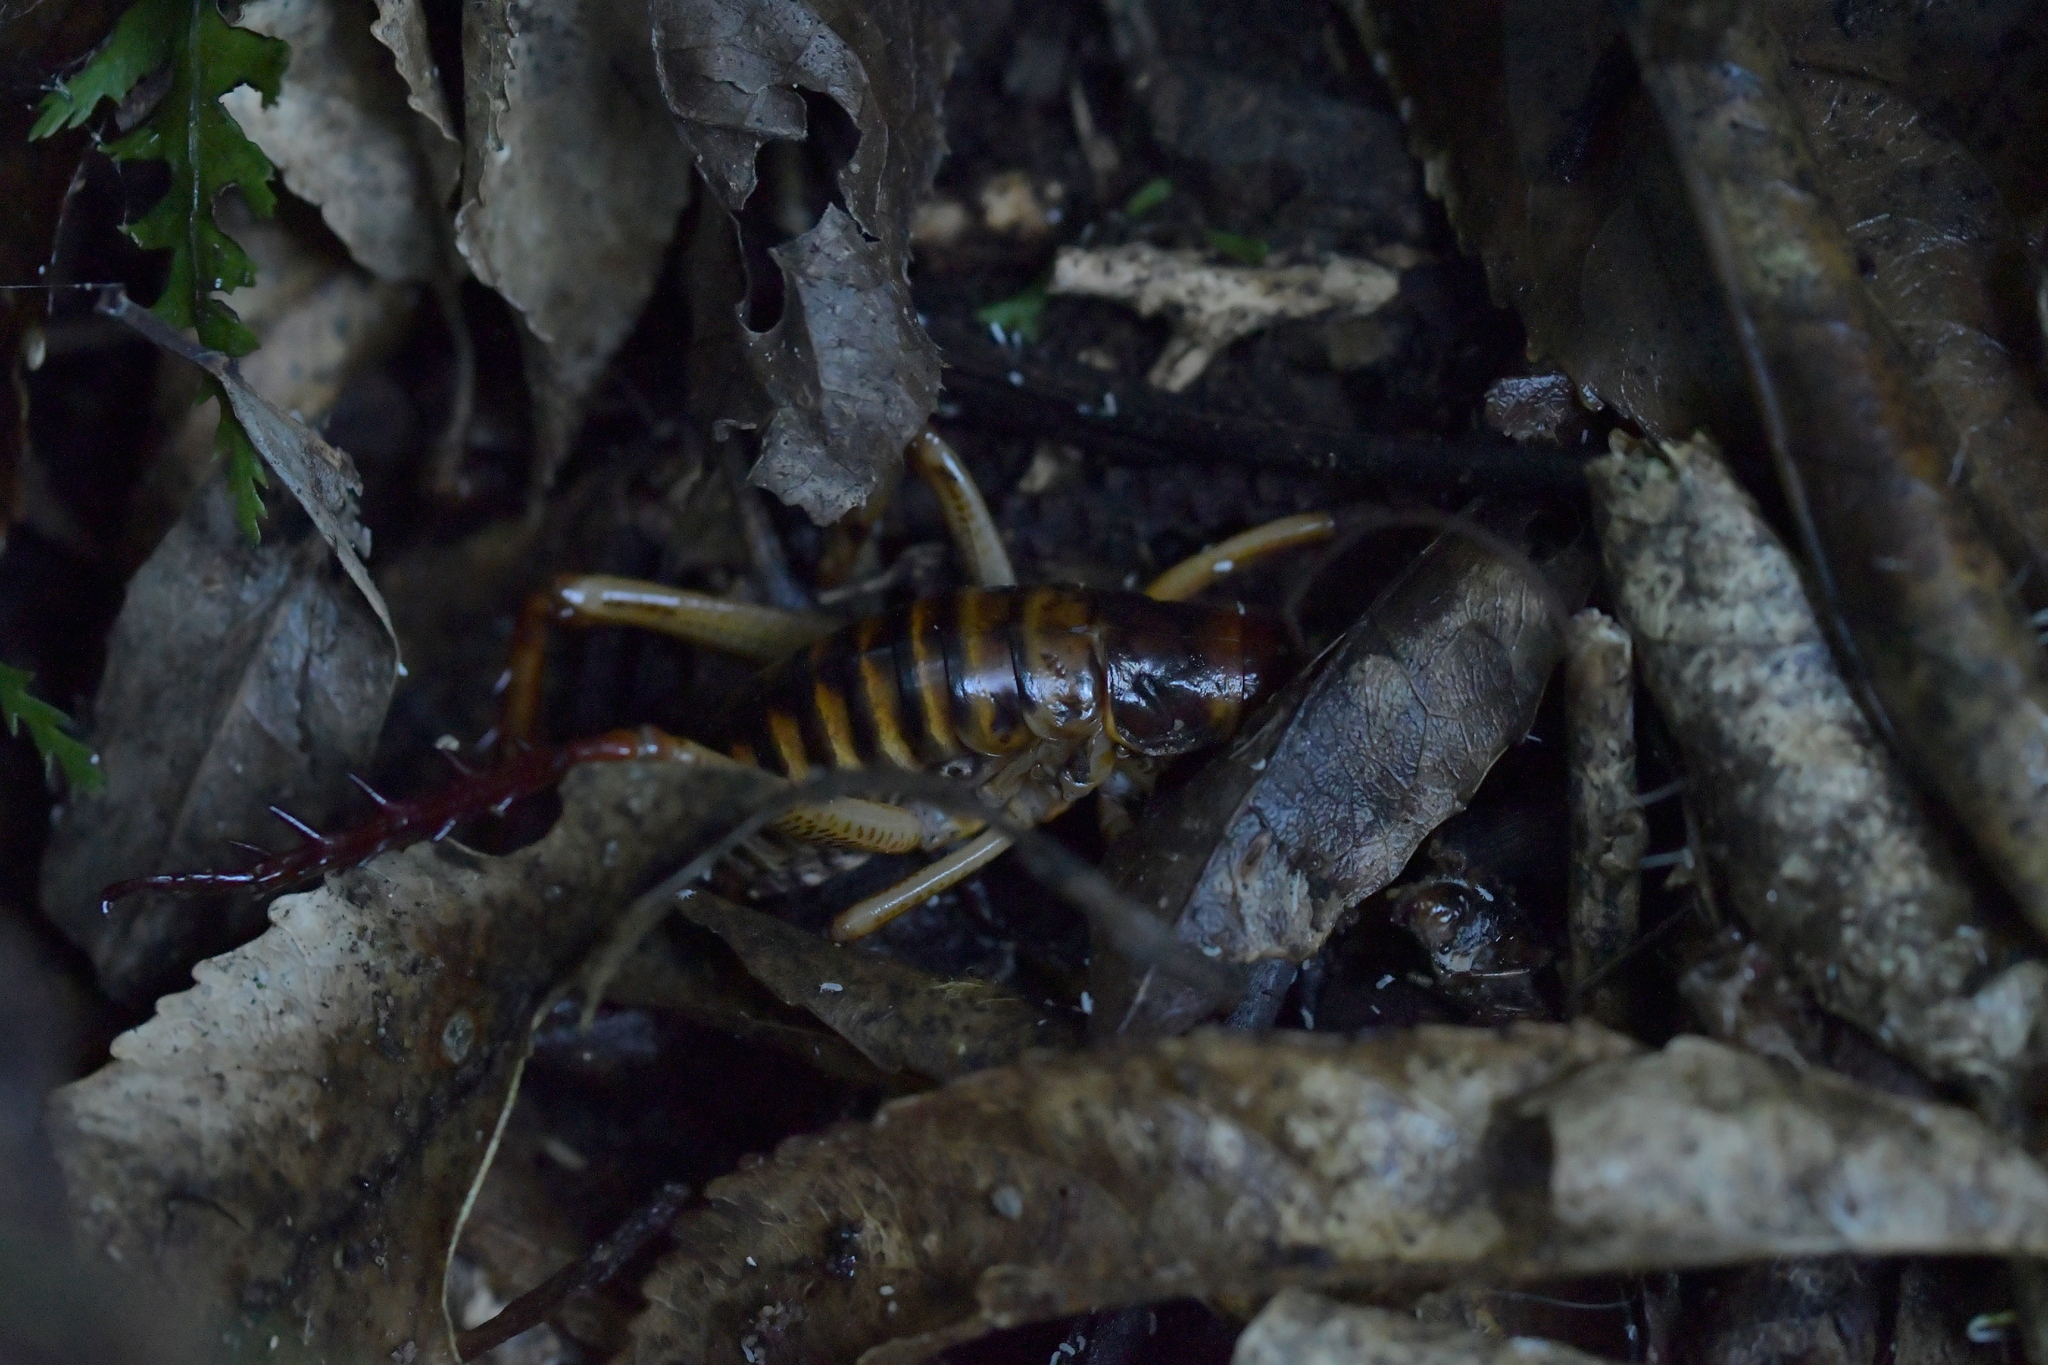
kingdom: Animalia
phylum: Arthropoda
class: Insecta
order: Orthoptera
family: Anostostomatidae
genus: Hemideina
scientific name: Hemideina crassidens
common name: Wellington tree weta
